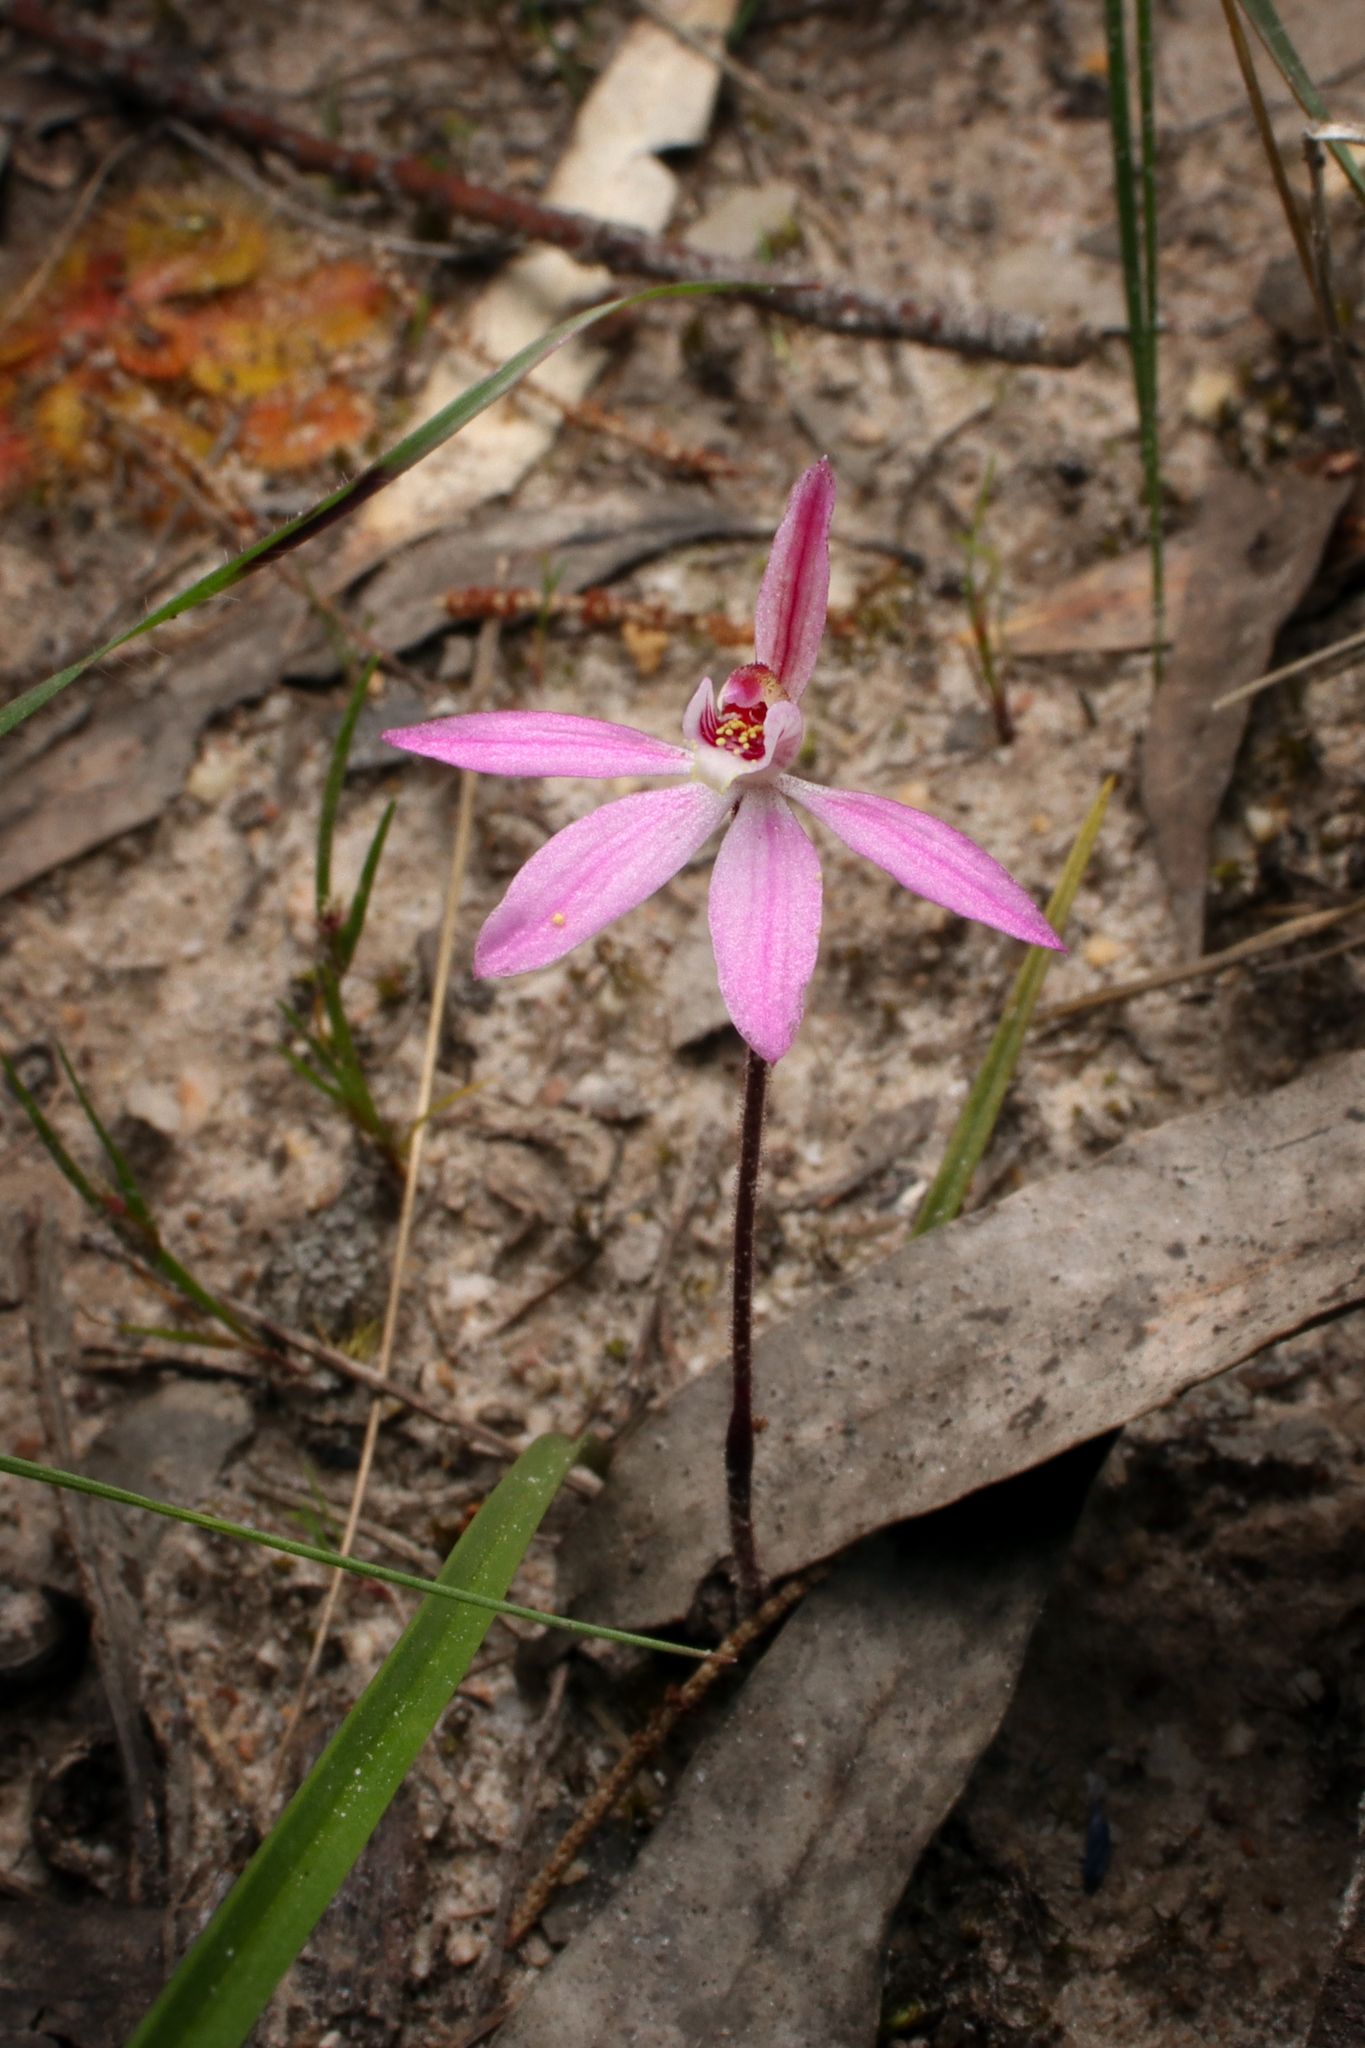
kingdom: Plantae
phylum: Tracheophyta
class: Liliopsida
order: Asparagales
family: Orchidaceae
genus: Caladenia
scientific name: Caladenia carnea
